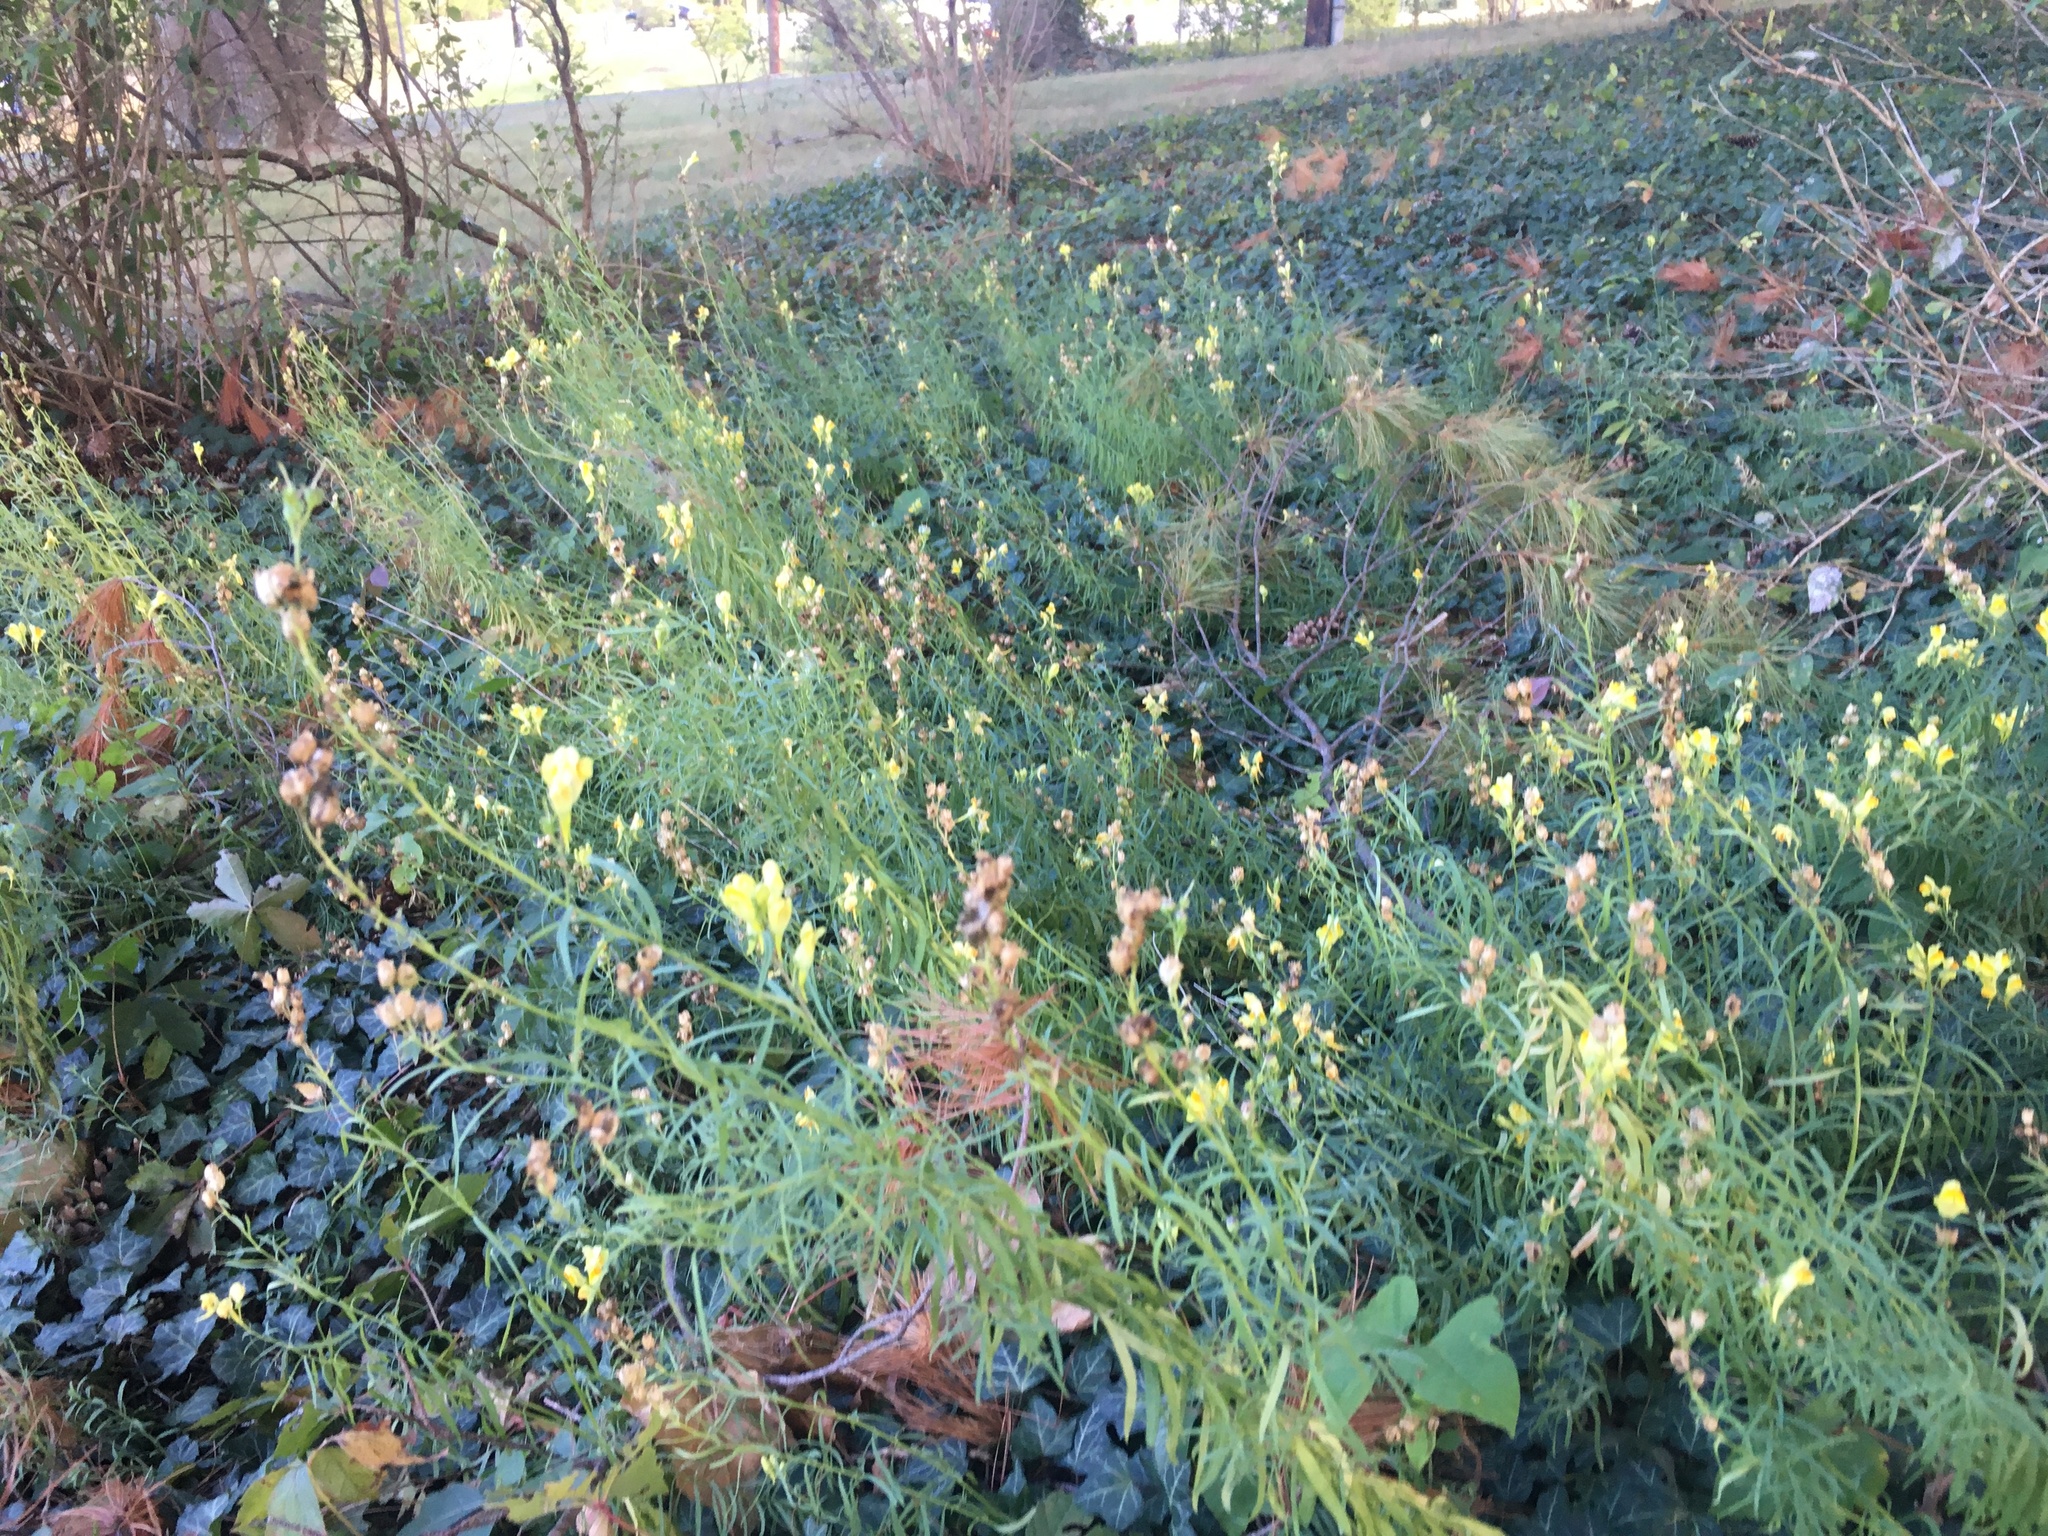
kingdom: Plantae
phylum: Tracheophyta
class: Magnoliopsida
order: Lamiales
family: Plantaginaceae
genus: Linaria
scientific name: Linaria vulgaris
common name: Butter and eggs
